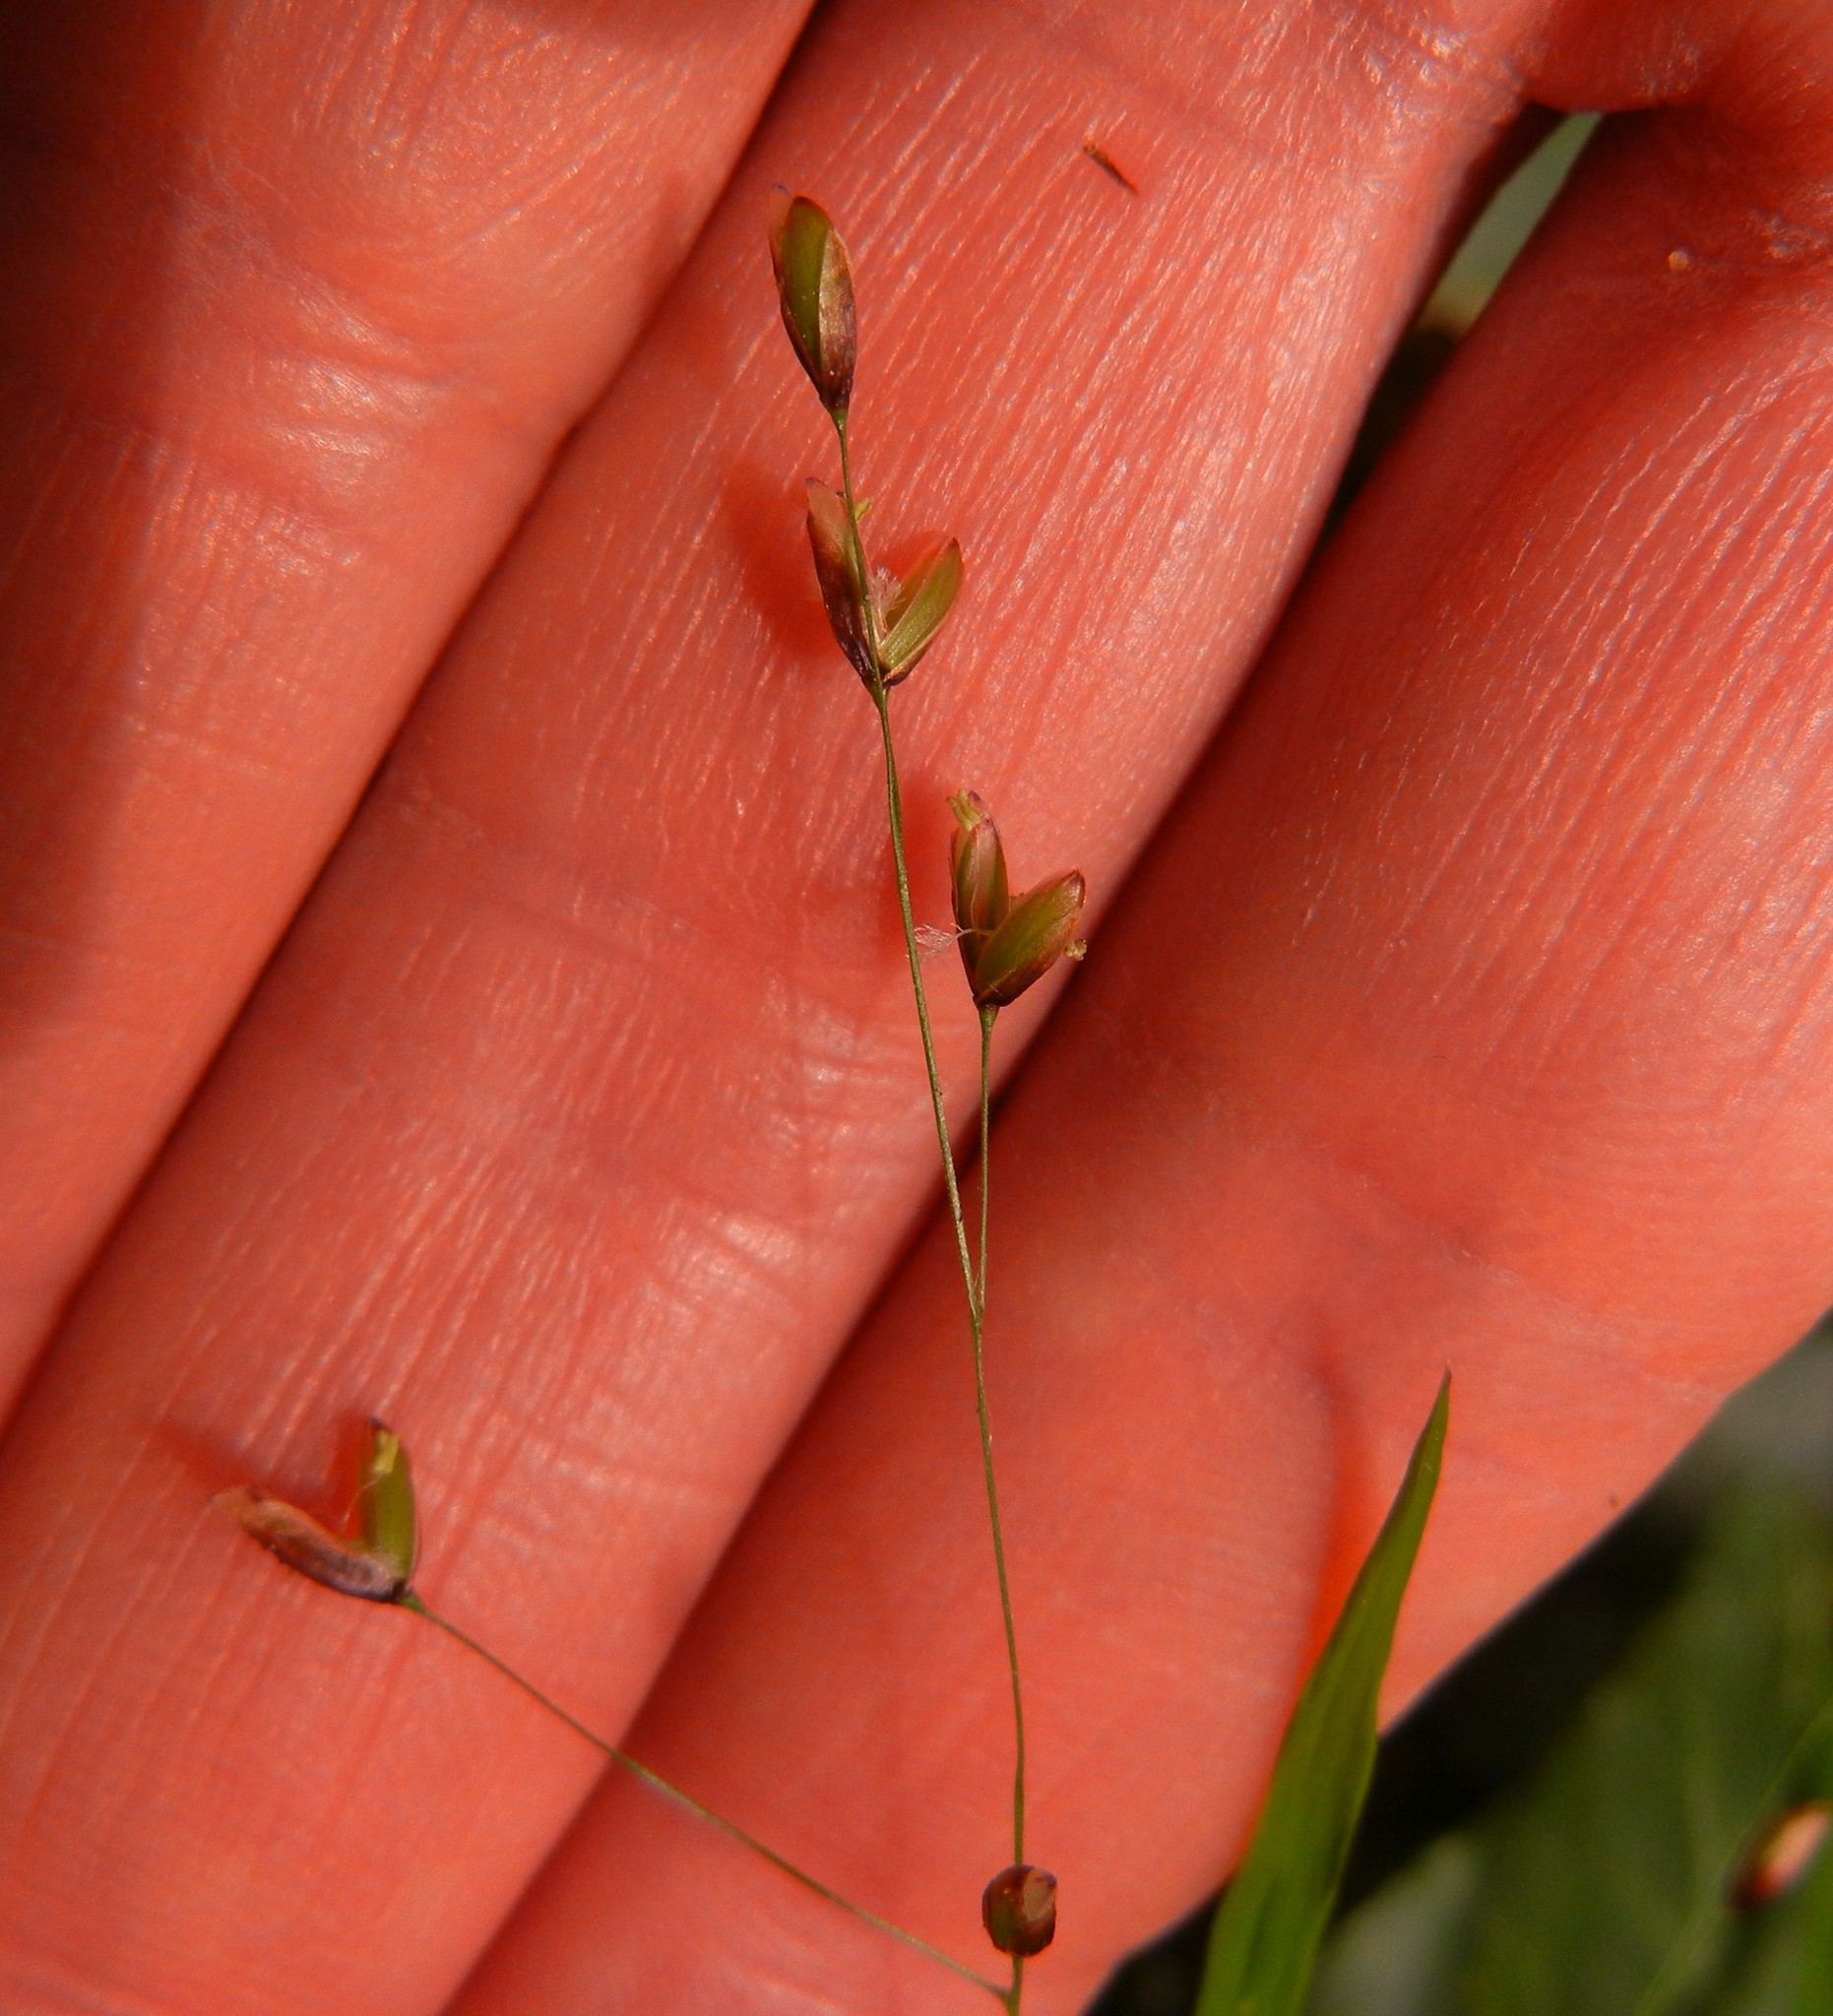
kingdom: Plantae
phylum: Tracheophyta
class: Liliopsida
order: Poales
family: Poaceae
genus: Melica
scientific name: Melica uniflora
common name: Wood melick
